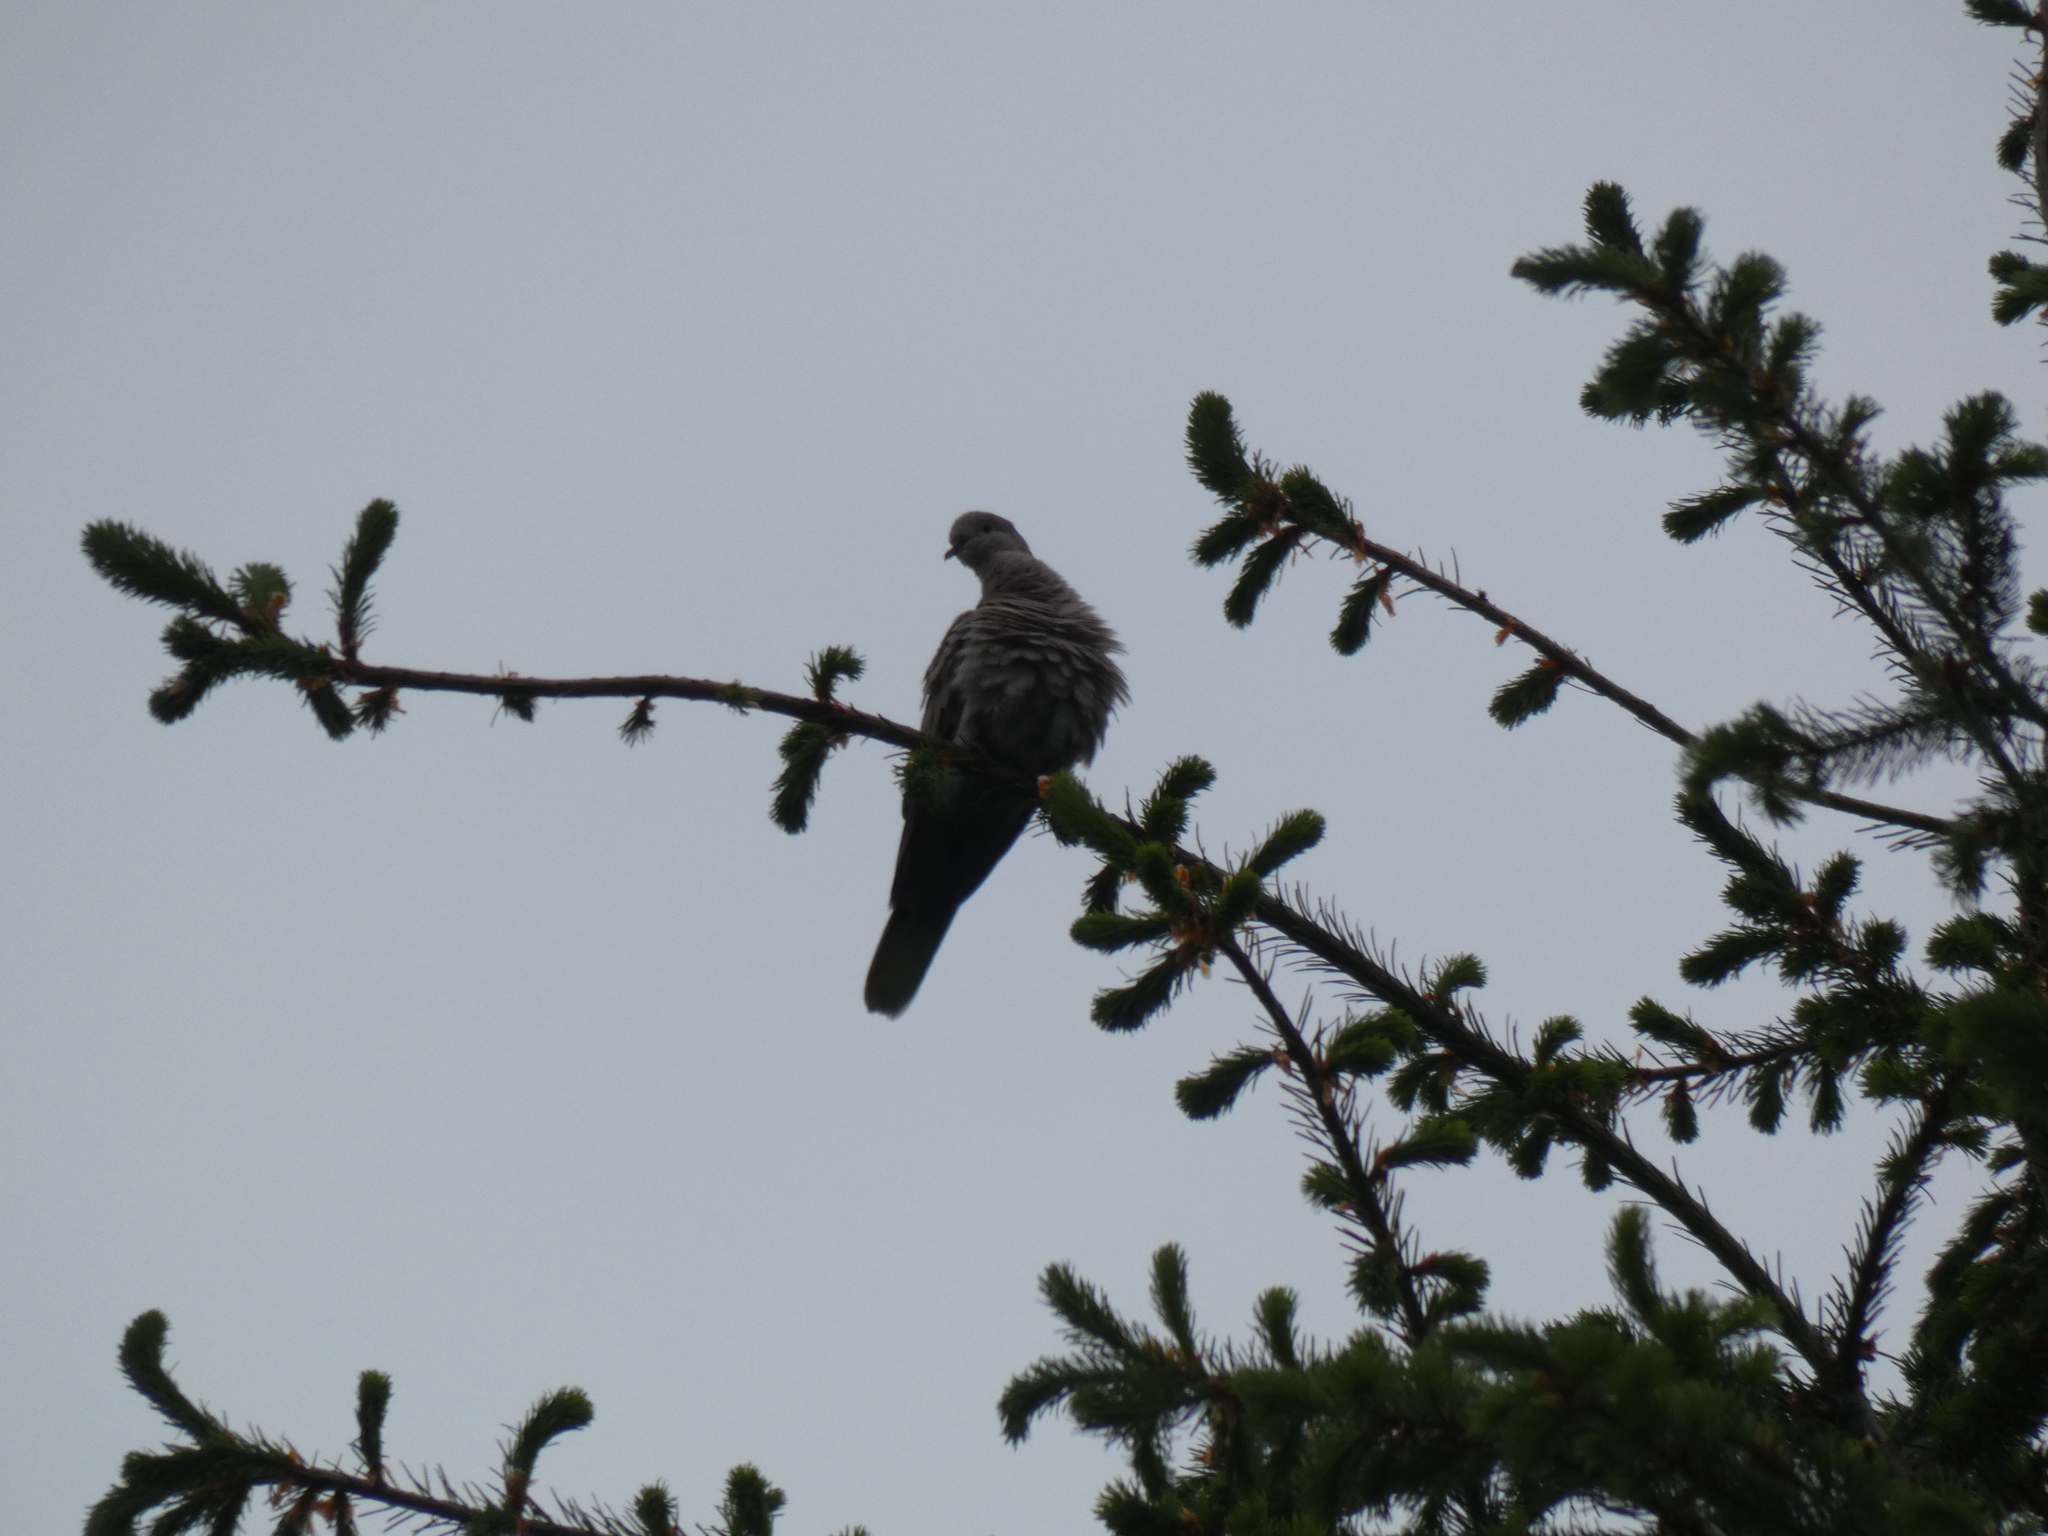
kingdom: Animalia
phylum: Chordata
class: Aves
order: Columbiformes
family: Columbidae
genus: Streptopelia
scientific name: Streptopelia decaocto
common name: Eurasian collared dove
